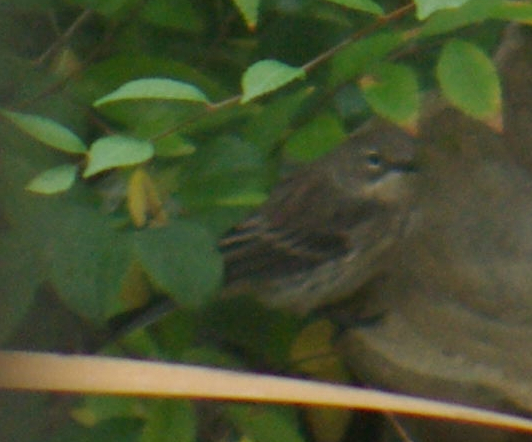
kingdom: Animalia
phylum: Chordata
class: Aves
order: Passeriformes
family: Parulidae
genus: Setophaga
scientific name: Setophaga coronata
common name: Myrtle warbler
